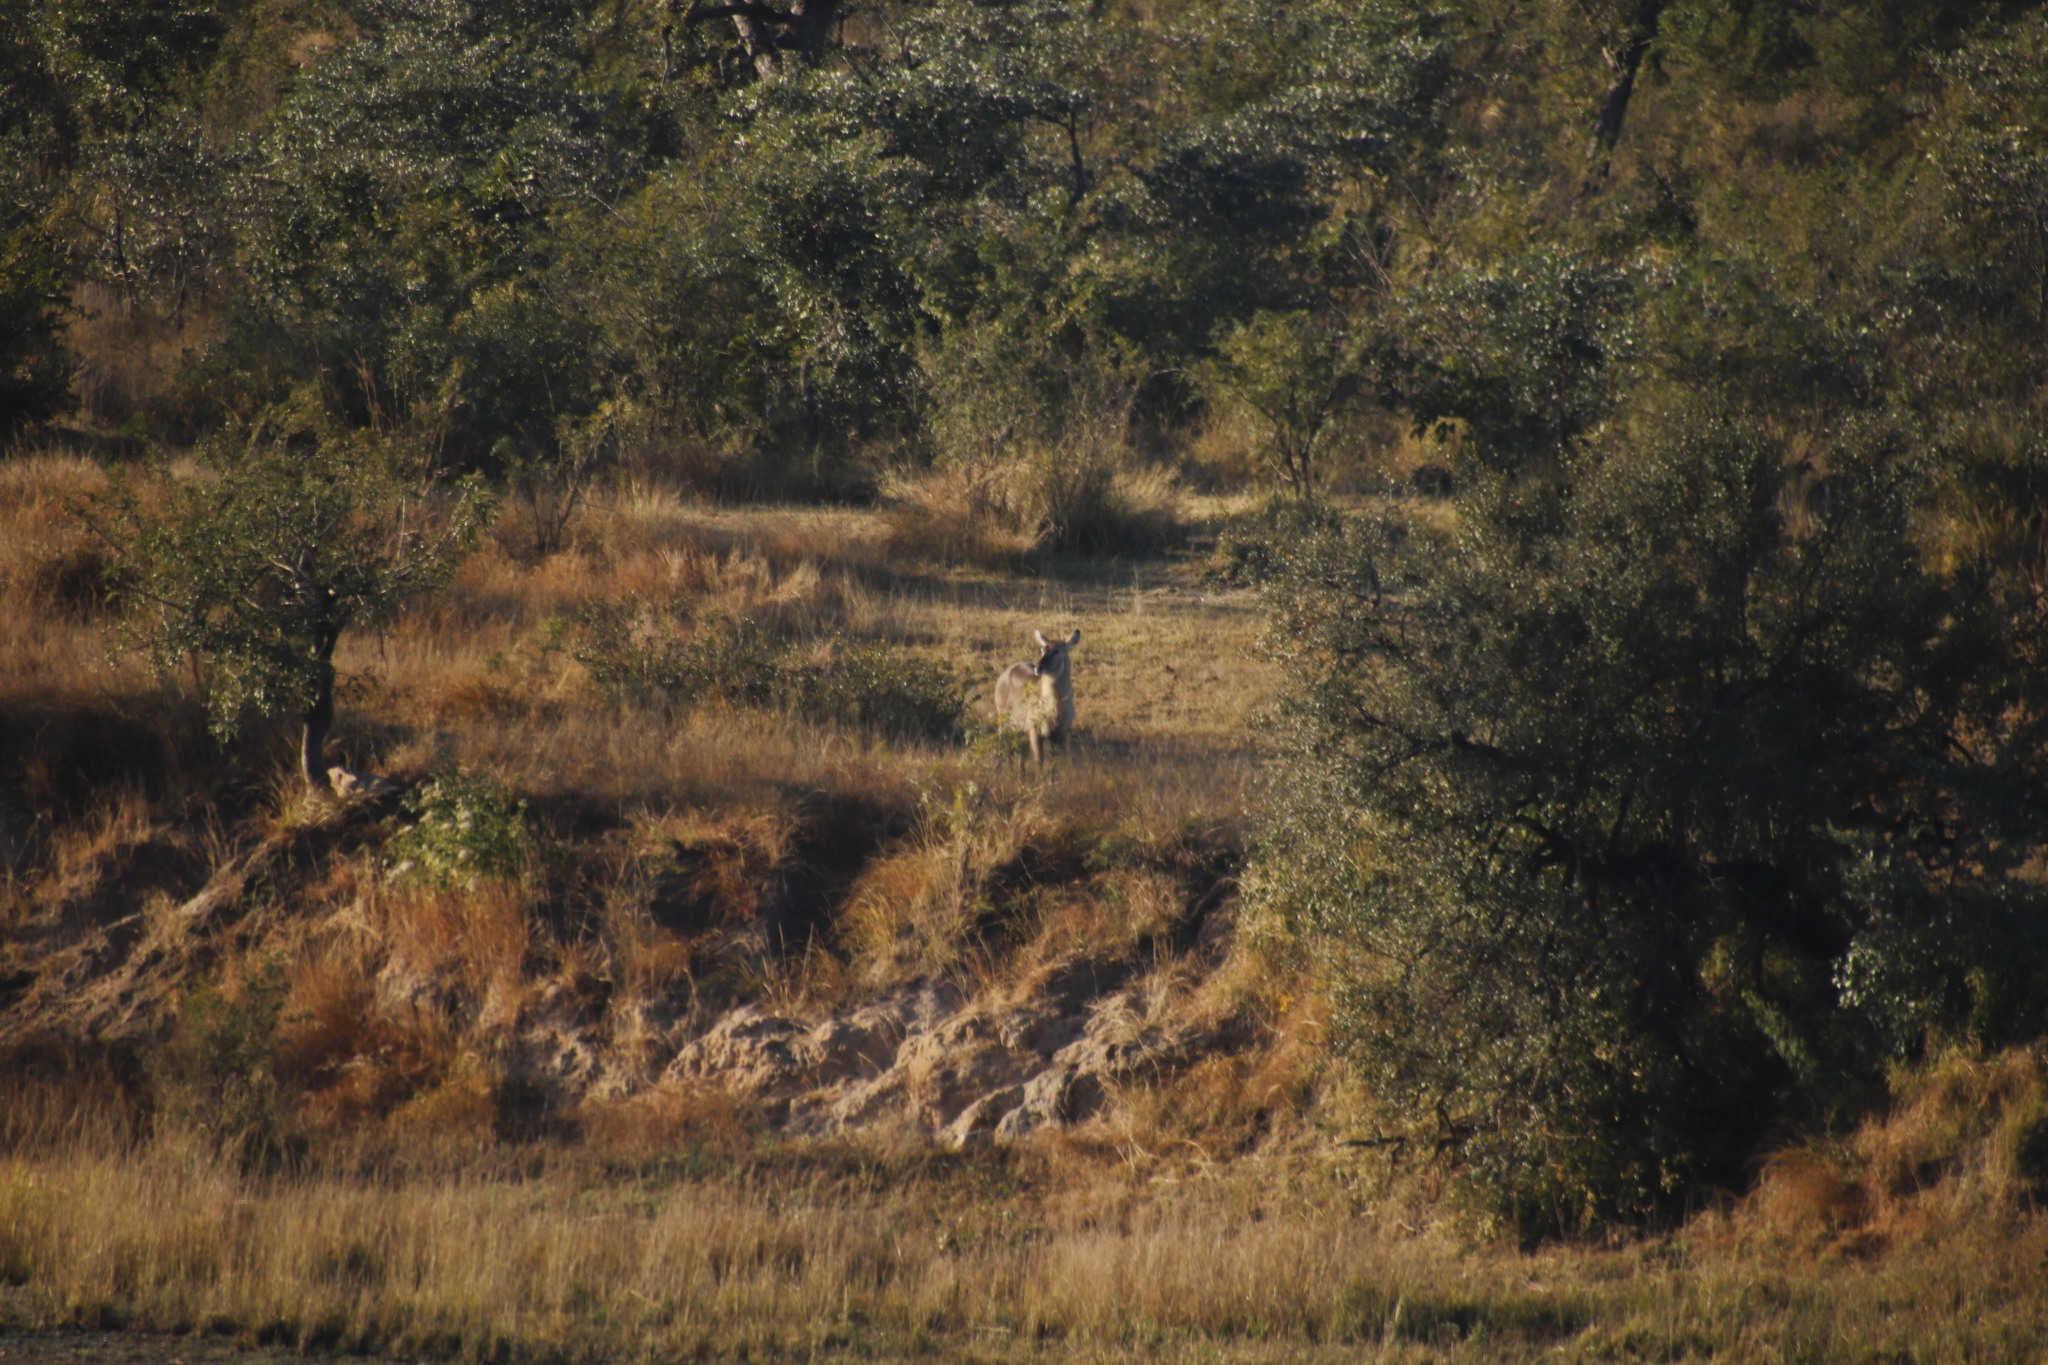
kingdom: Animalia
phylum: Chordata
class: Mammalia
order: Artiodactyla
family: Bovidae
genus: Kobus
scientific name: Kobus ellipsiprymnus
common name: Waterbuck
